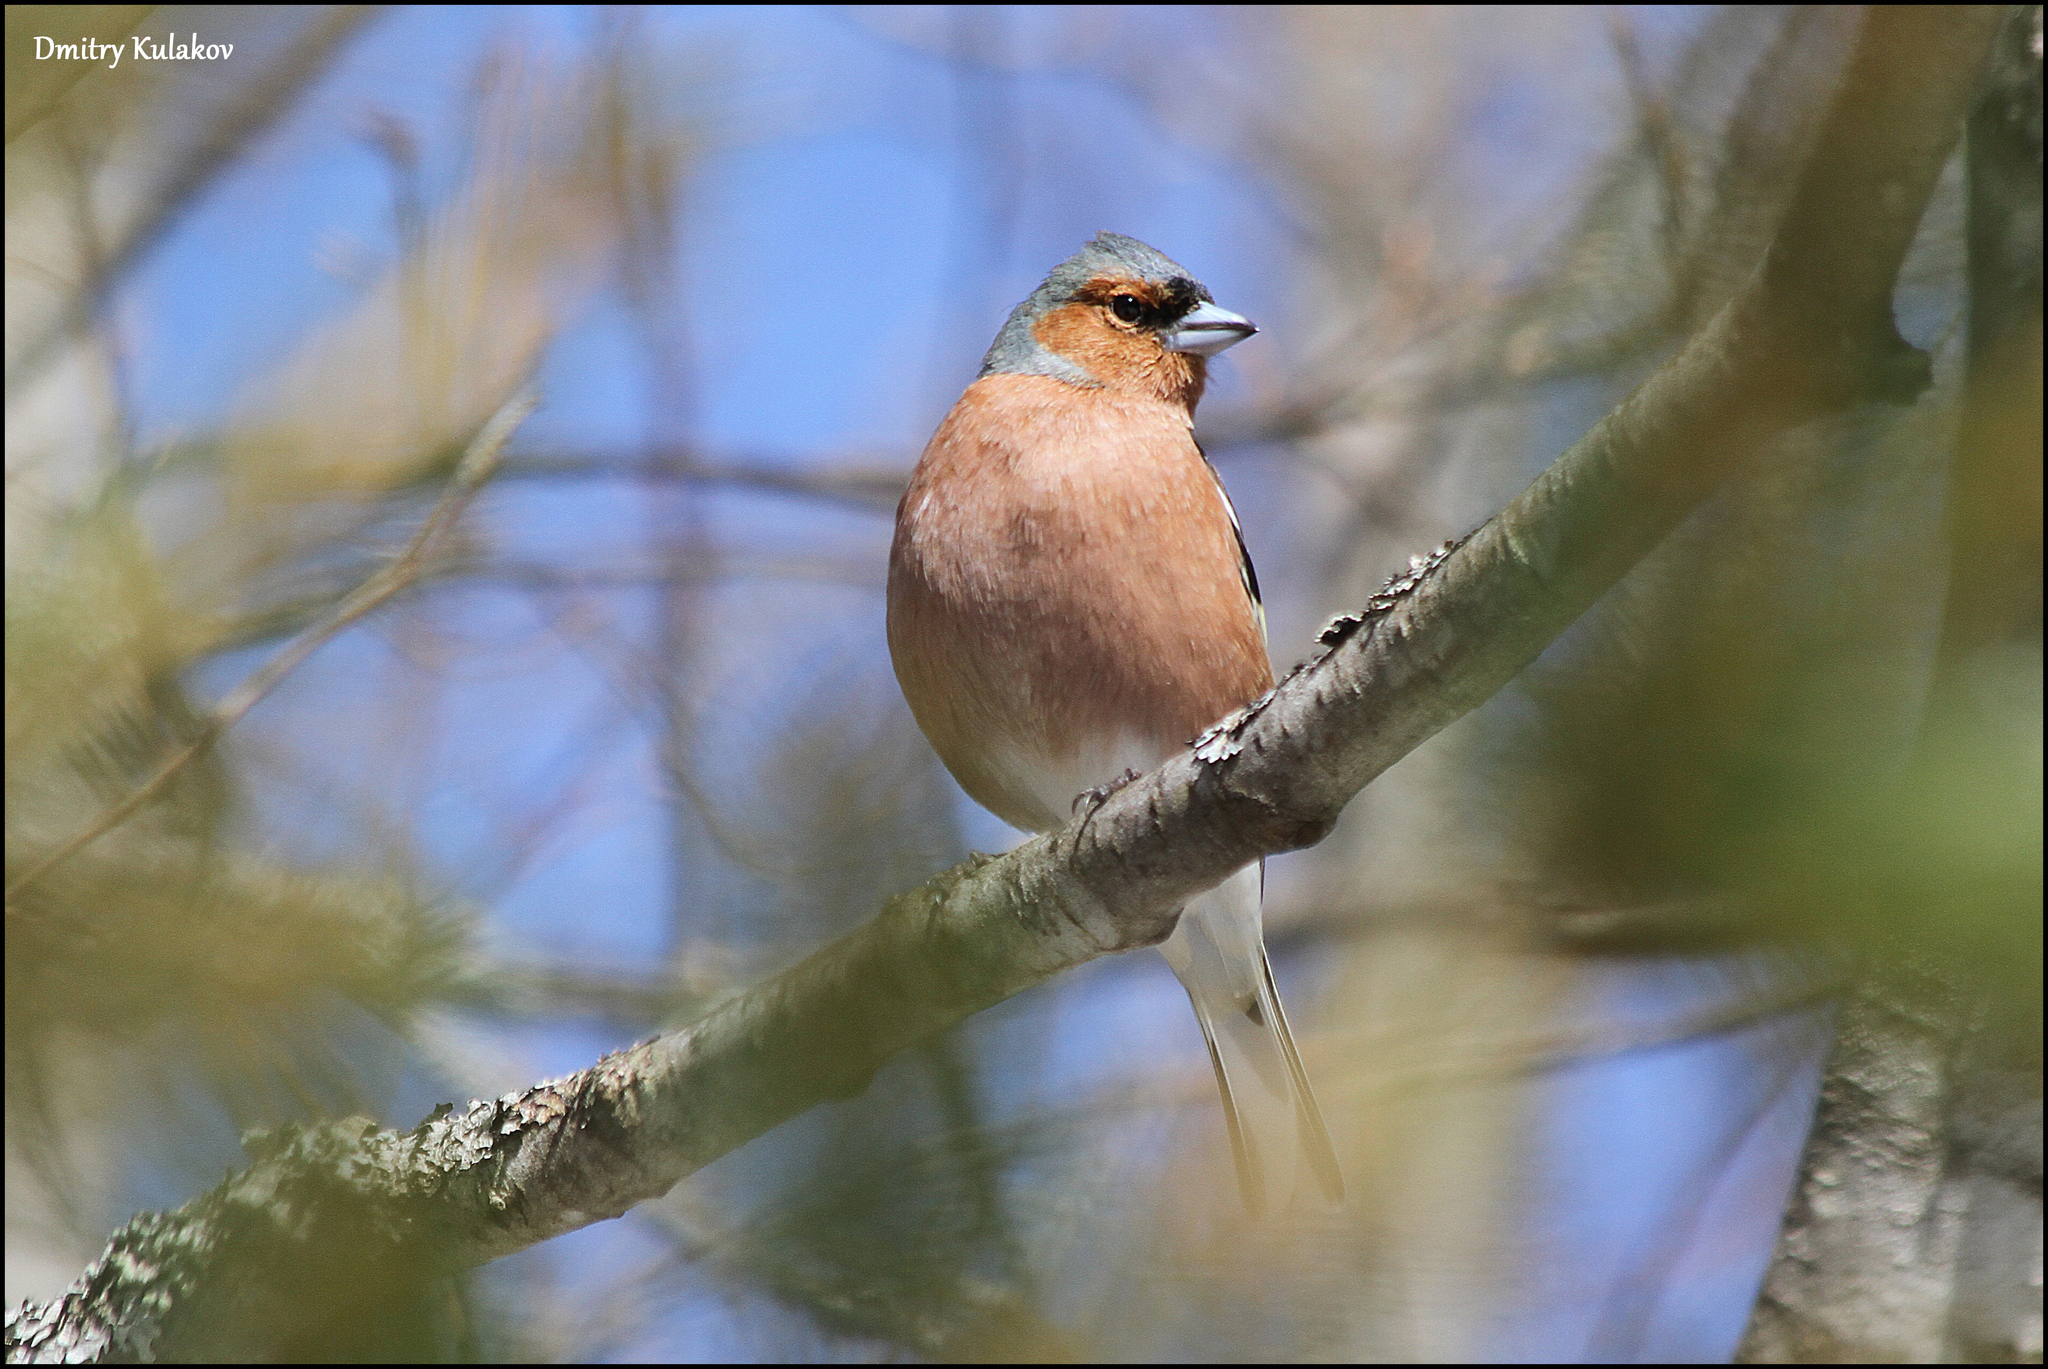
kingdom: Animalia
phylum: Chordata
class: Aves
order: Passeriformes
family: Fringillidae
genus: Fringilla
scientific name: Fringilla coelebs
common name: Common chaffinch
